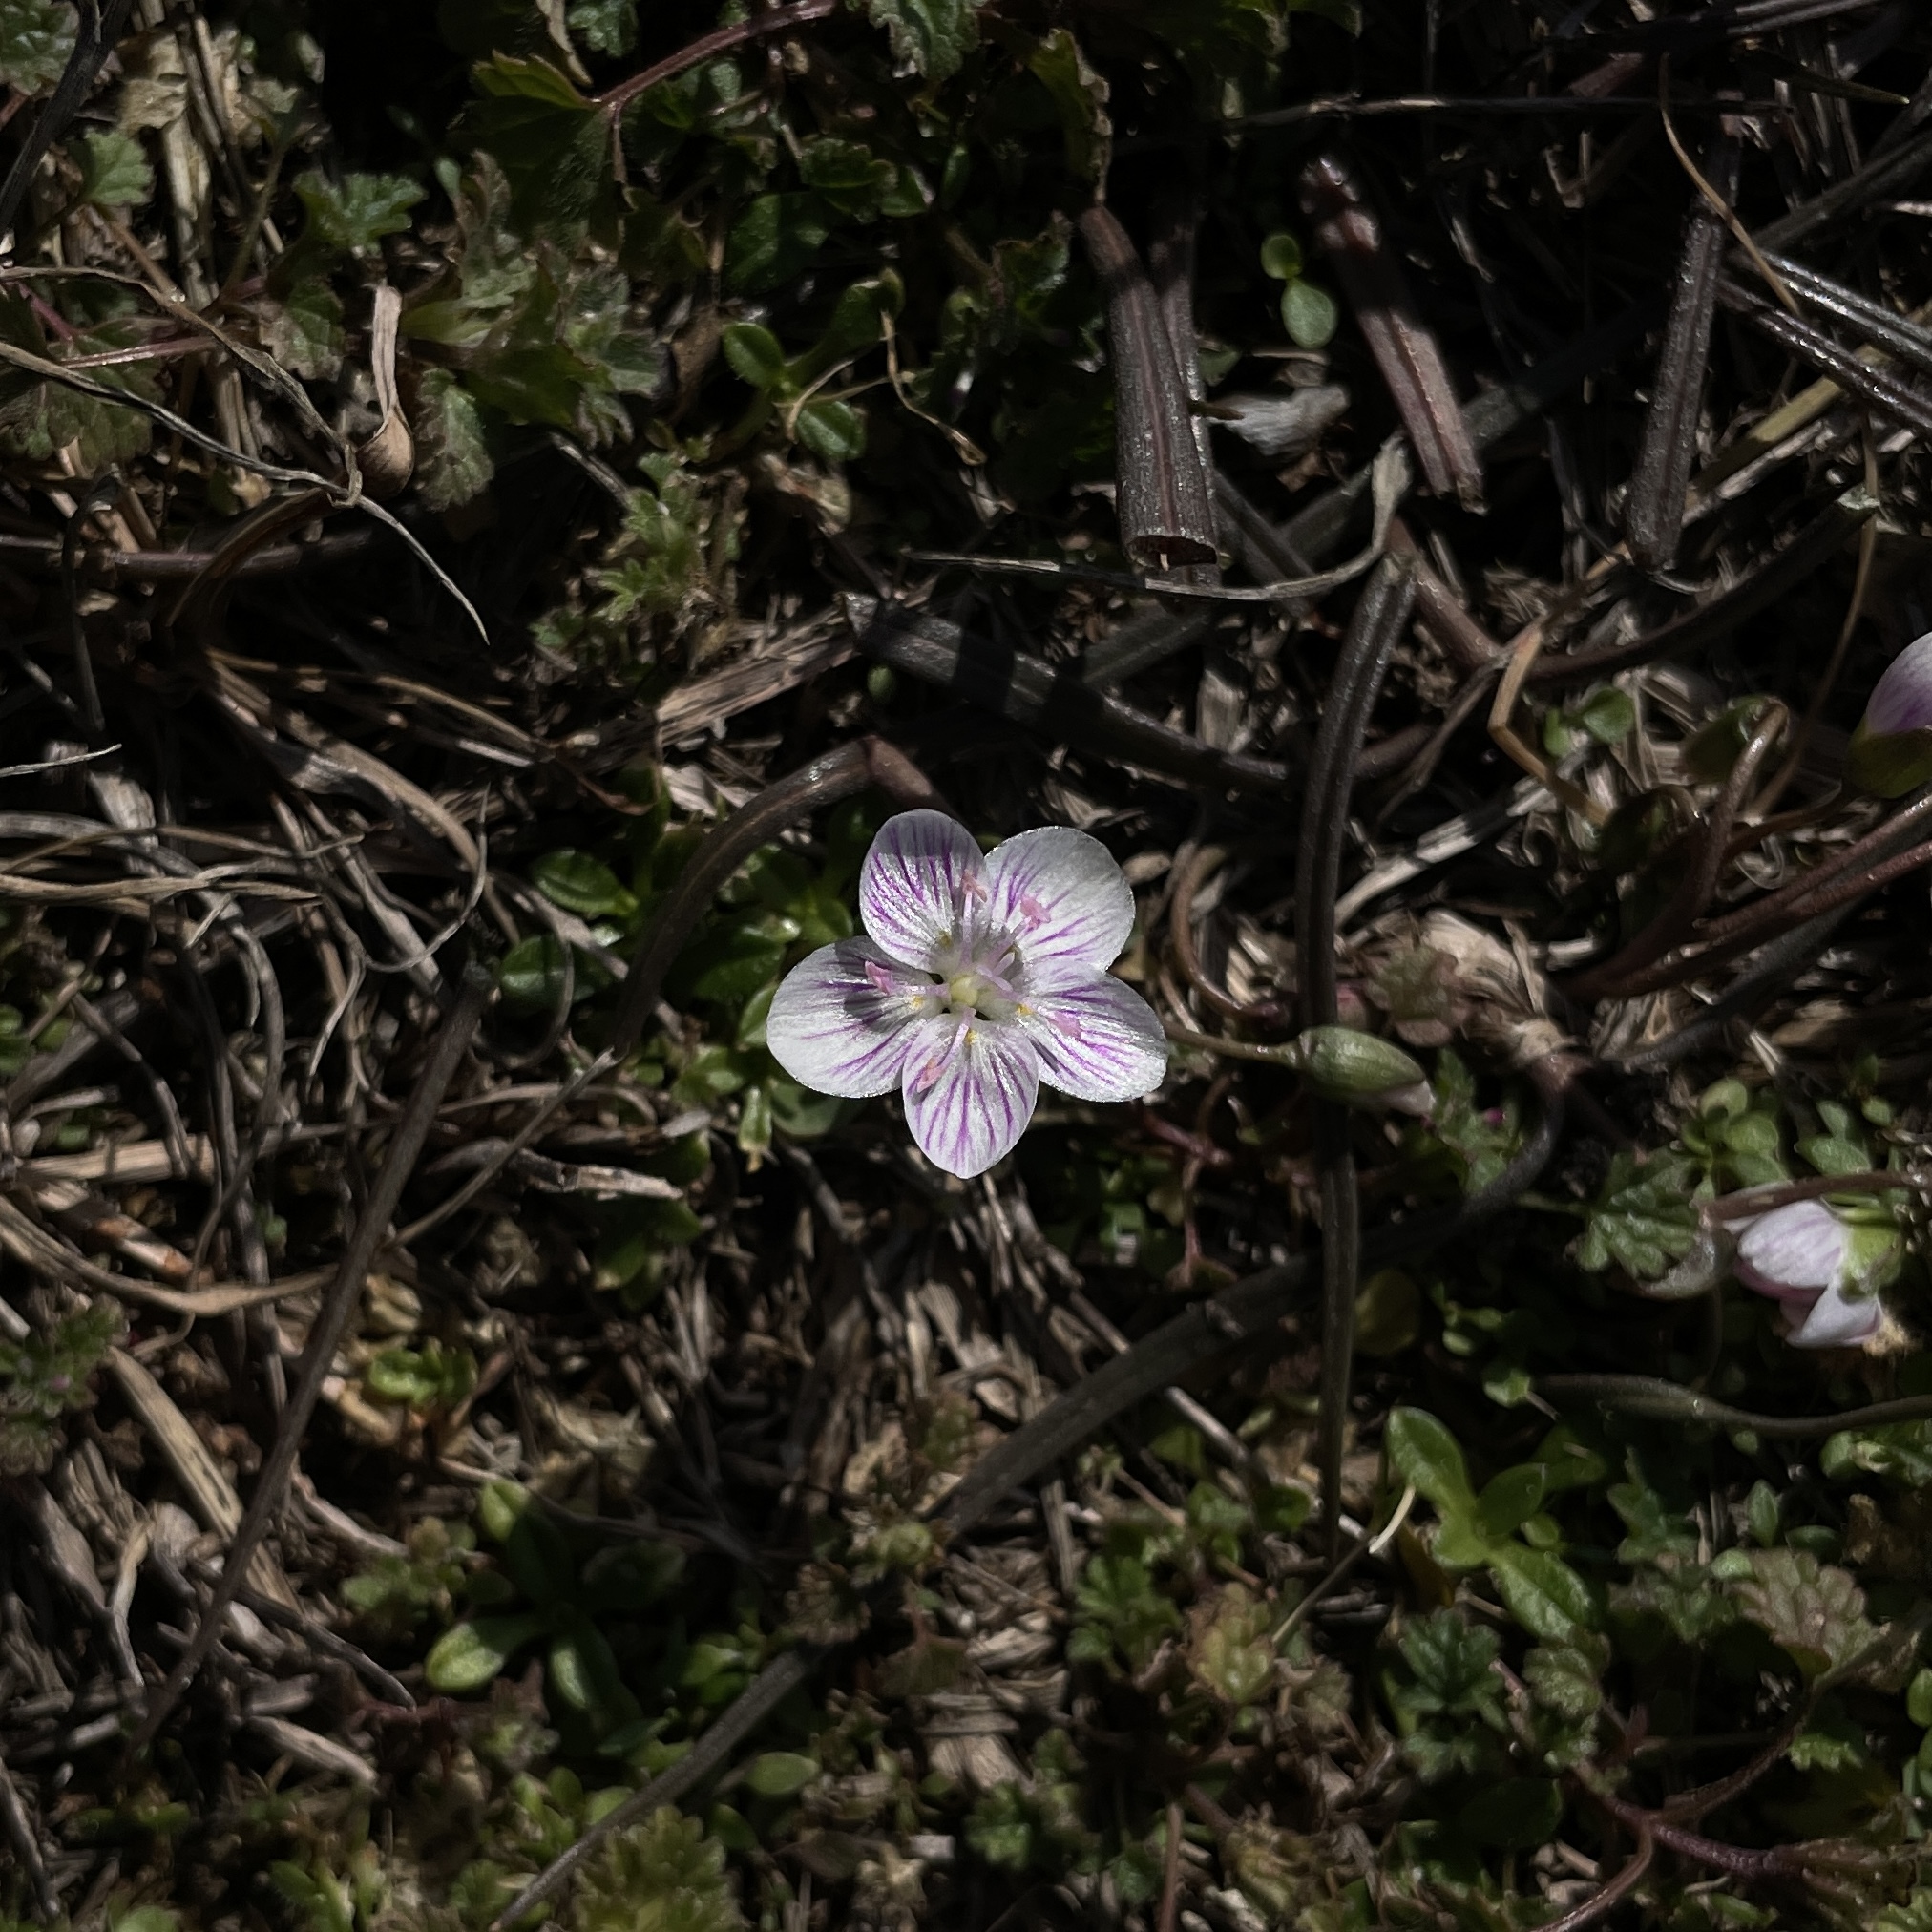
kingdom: Plantae
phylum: Tracheophyta
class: Magnoliopsida
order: Caryophyllales
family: Montiaceae
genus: Claytonia
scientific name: Claytonia virginica
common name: Virginia springbeauty
